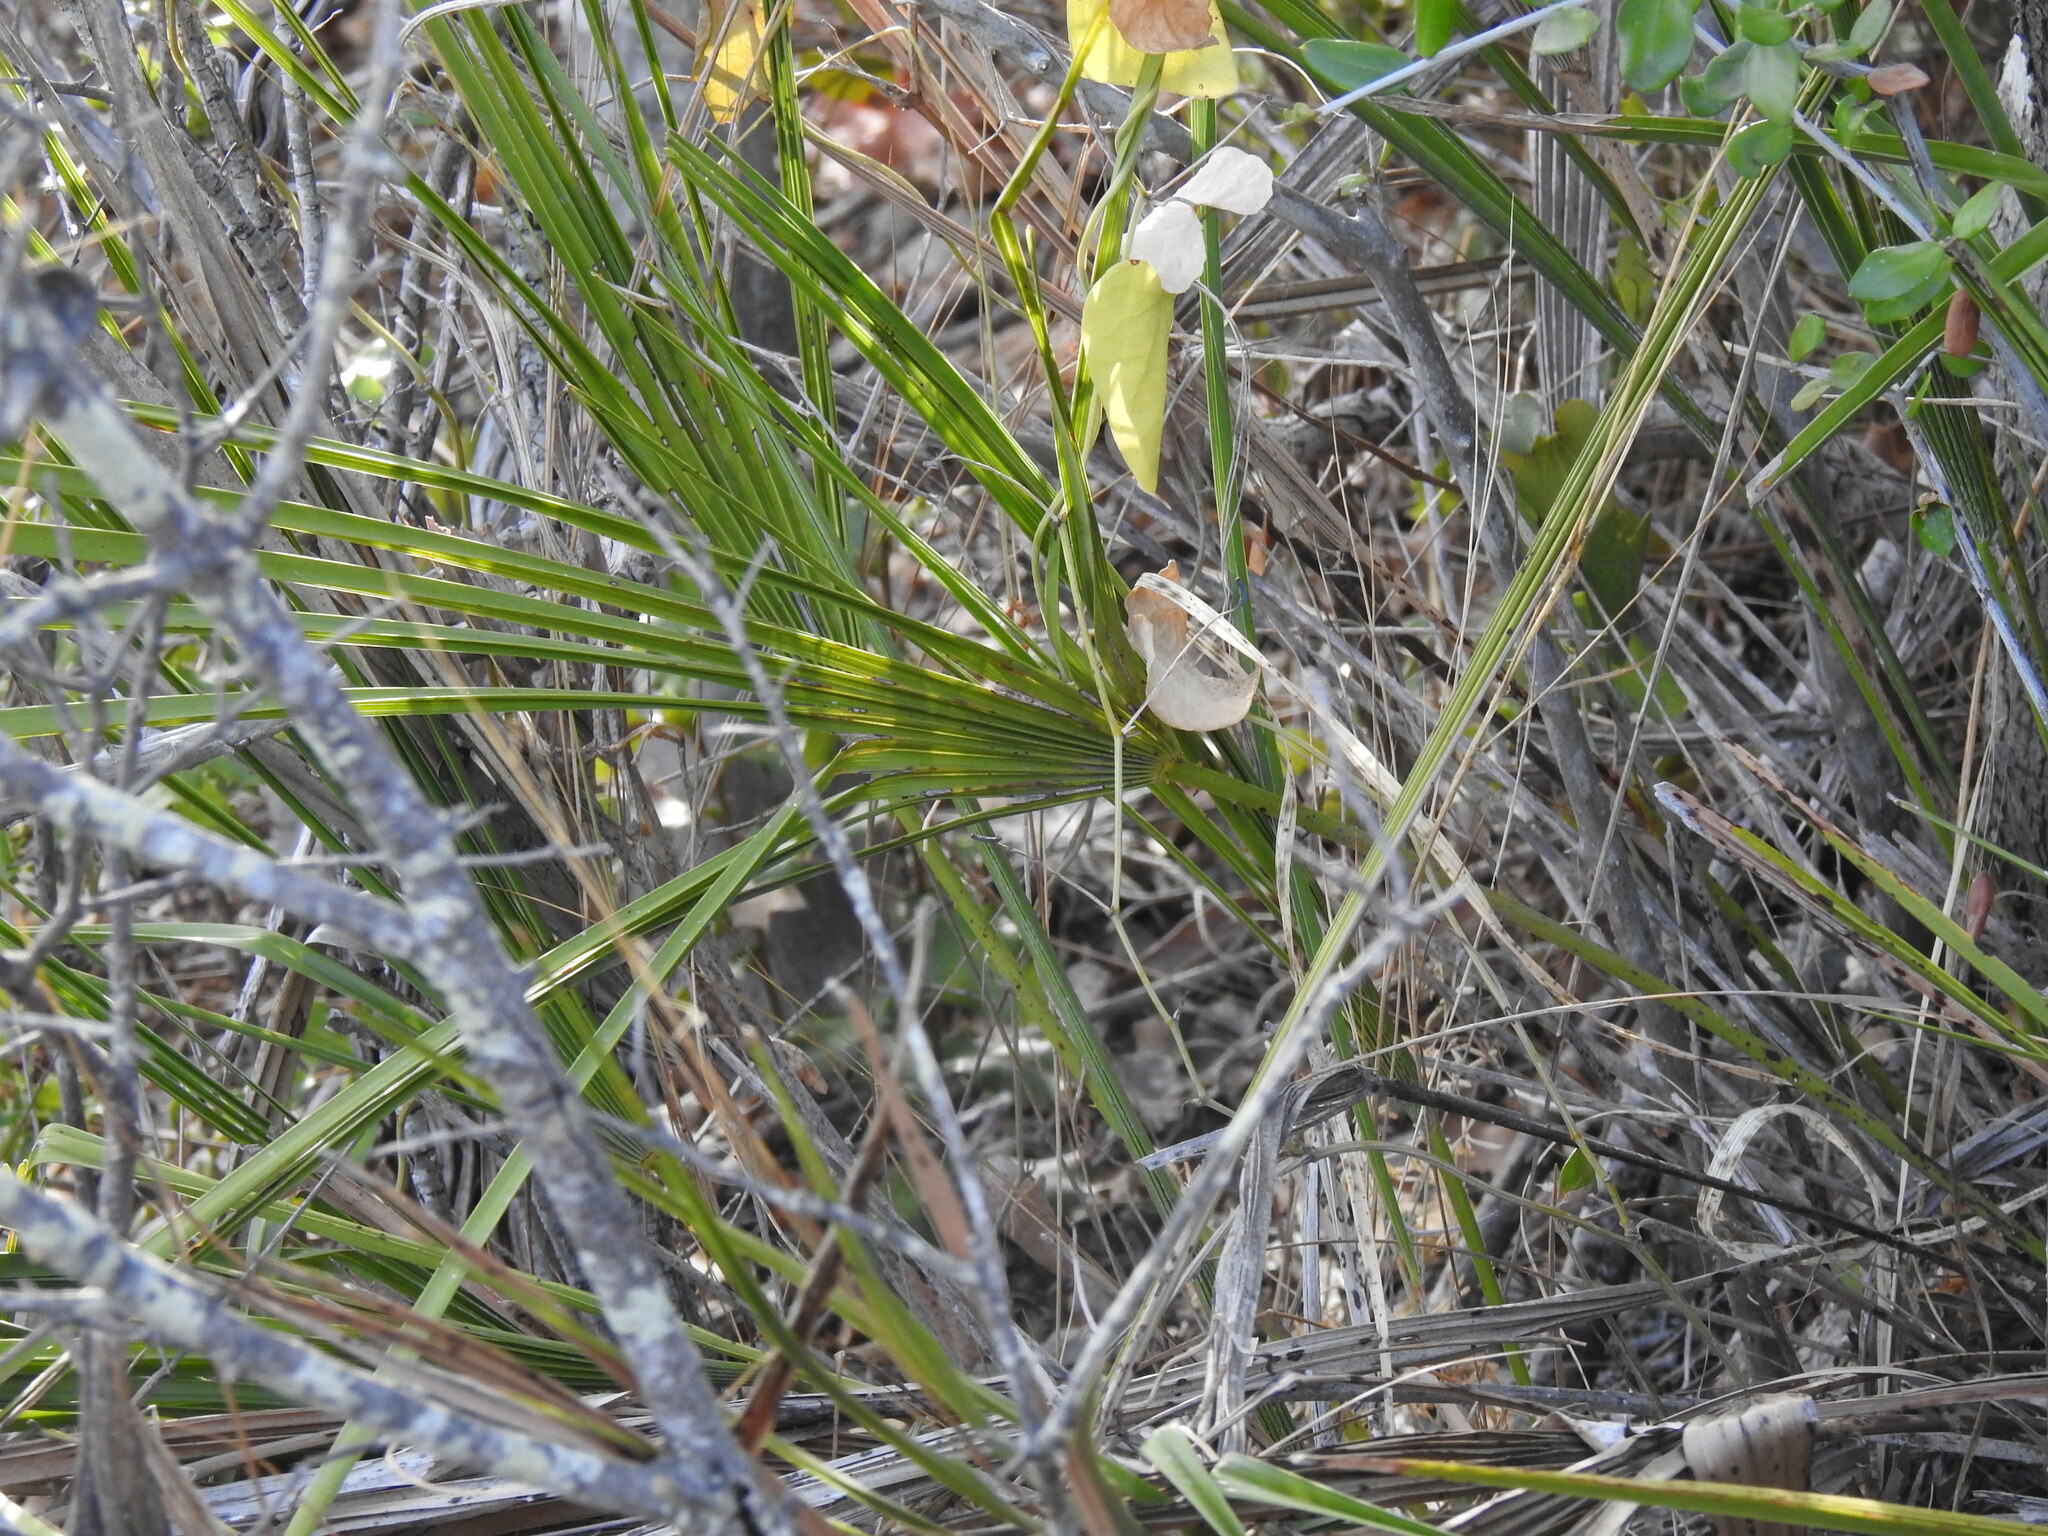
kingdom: Plantae
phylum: Tracheophyta
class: Liliopsida
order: Arecales
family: Arecaceae
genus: Chamaerops
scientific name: Chamaerops humilis
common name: Dwarf fan palm
